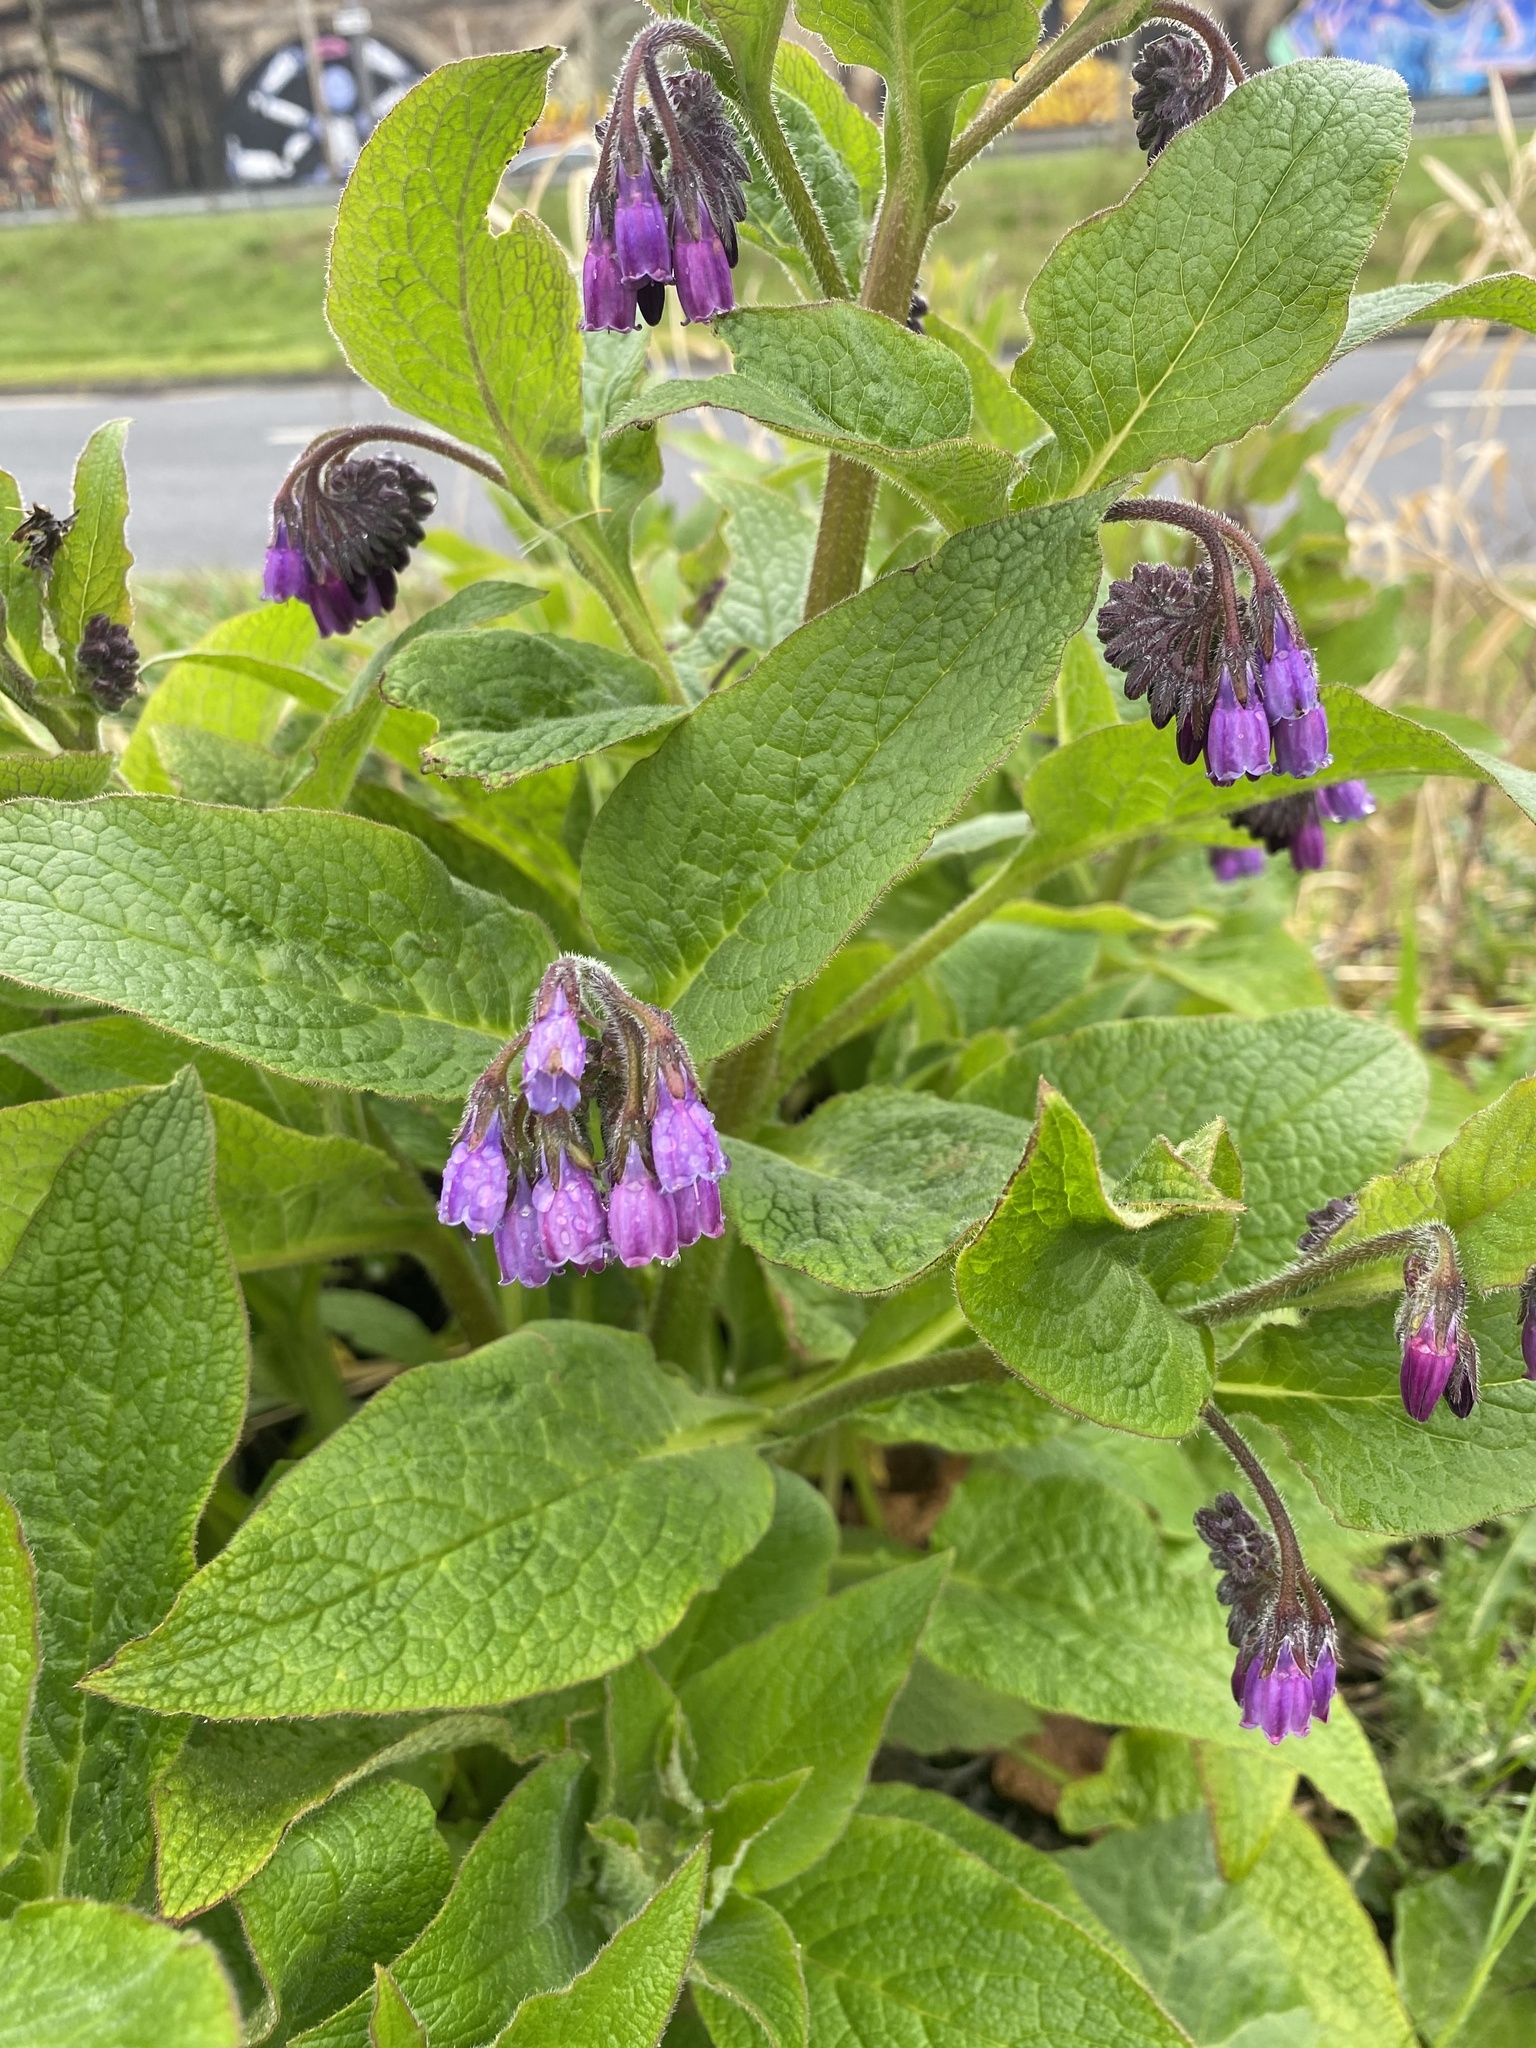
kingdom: Plantae
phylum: Tracheophyta
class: Magnoliopsida
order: Boraginales
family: Boraginaceae
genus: Symphytum
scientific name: Symphytum uplandicum
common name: Russian comfrey
